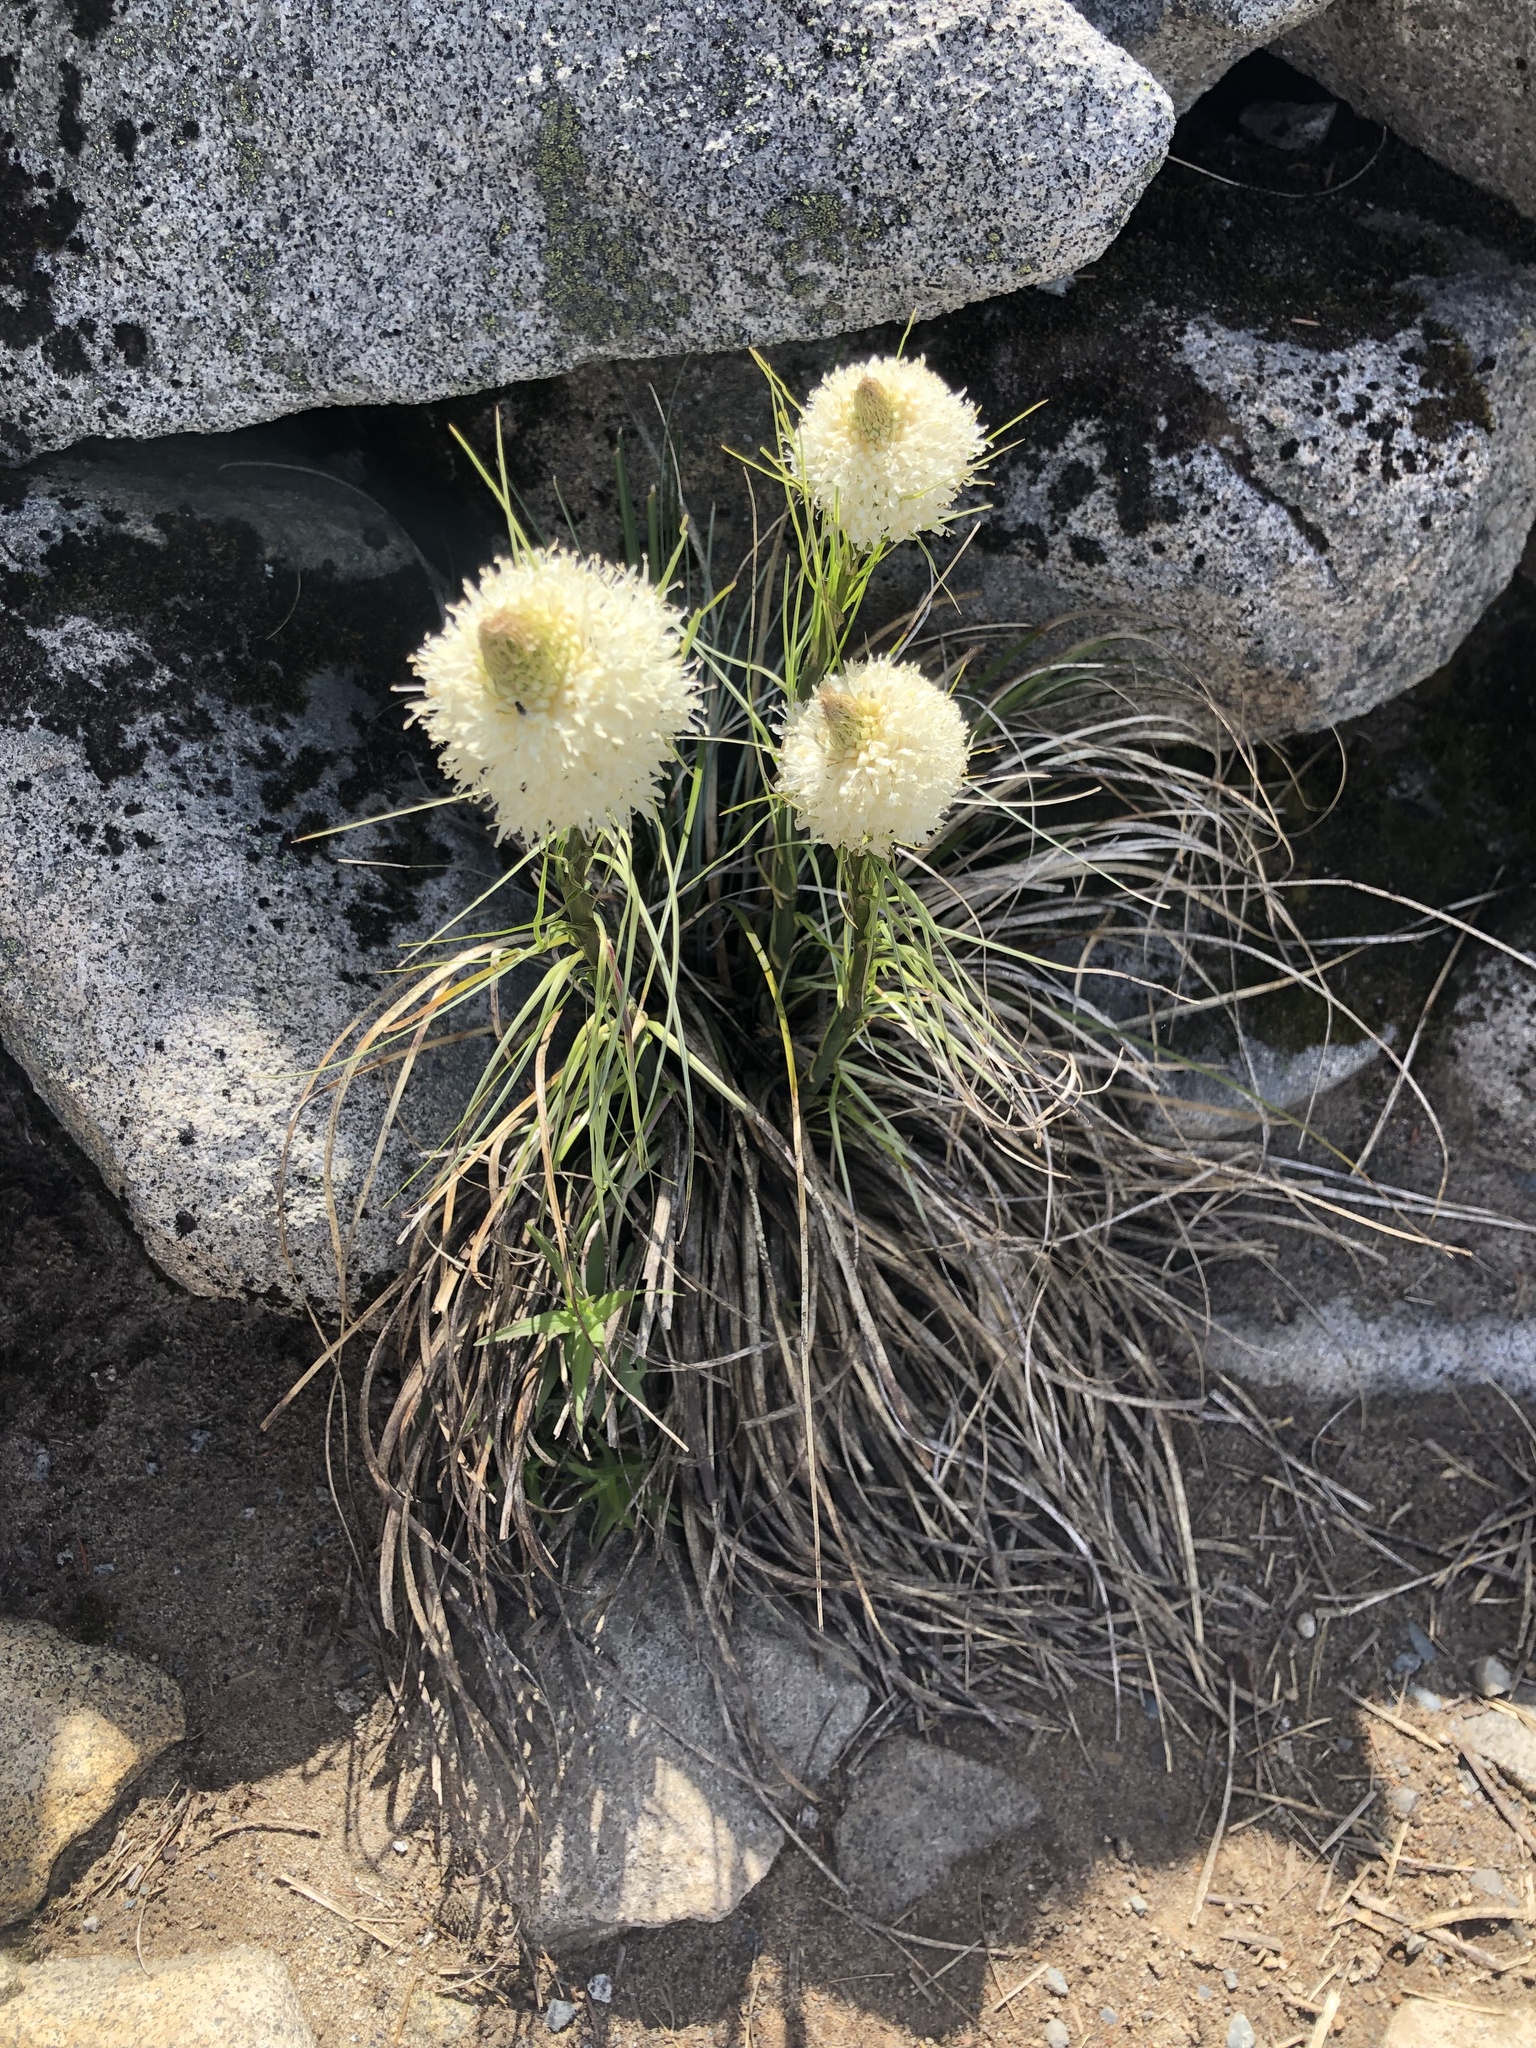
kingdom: Plantae
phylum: Tracheophyta
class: Liliopsida
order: Liliales
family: Melanthiaceae
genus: Xerophyllum
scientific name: Xerophyllum tenax
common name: Bear-grass
